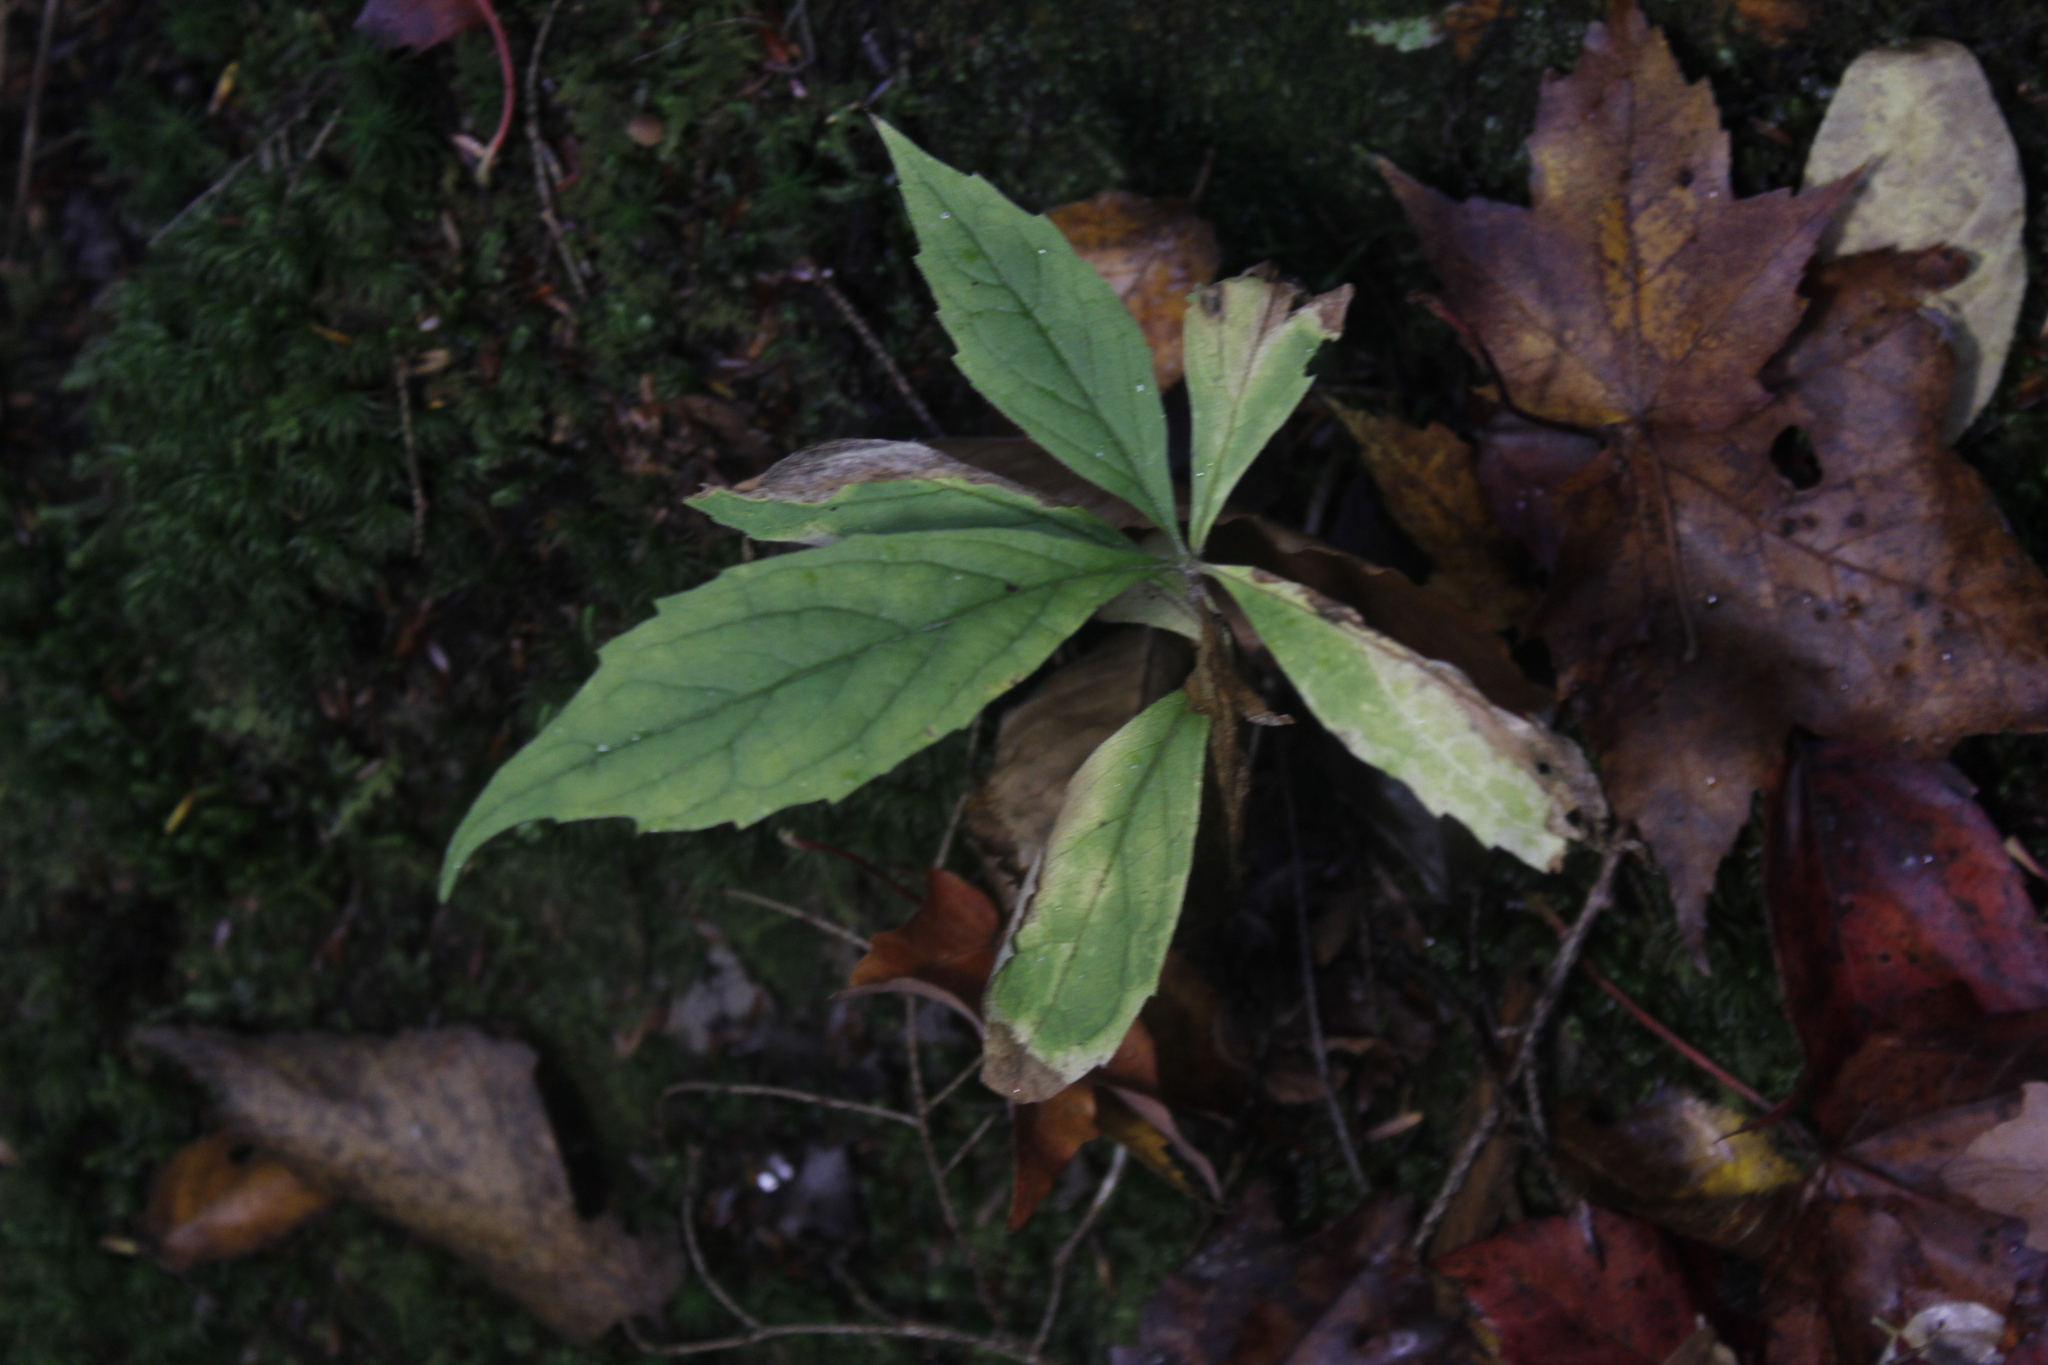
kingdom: Plantae
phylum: Tracheophyta
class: Magnoliopsida
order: Asterales
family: Asteraceae
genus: Oclemena
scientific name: Oclemena acuminata
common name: Mountain aster
